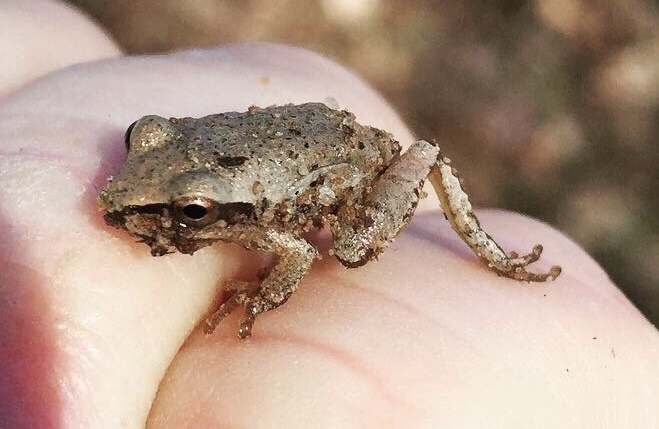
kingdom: Animalia
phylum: Chordata
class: Amphibia
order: Anura
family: Hylidae
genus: Pseudacris
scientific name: Pseudacris crucifer
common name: Spring peeper
